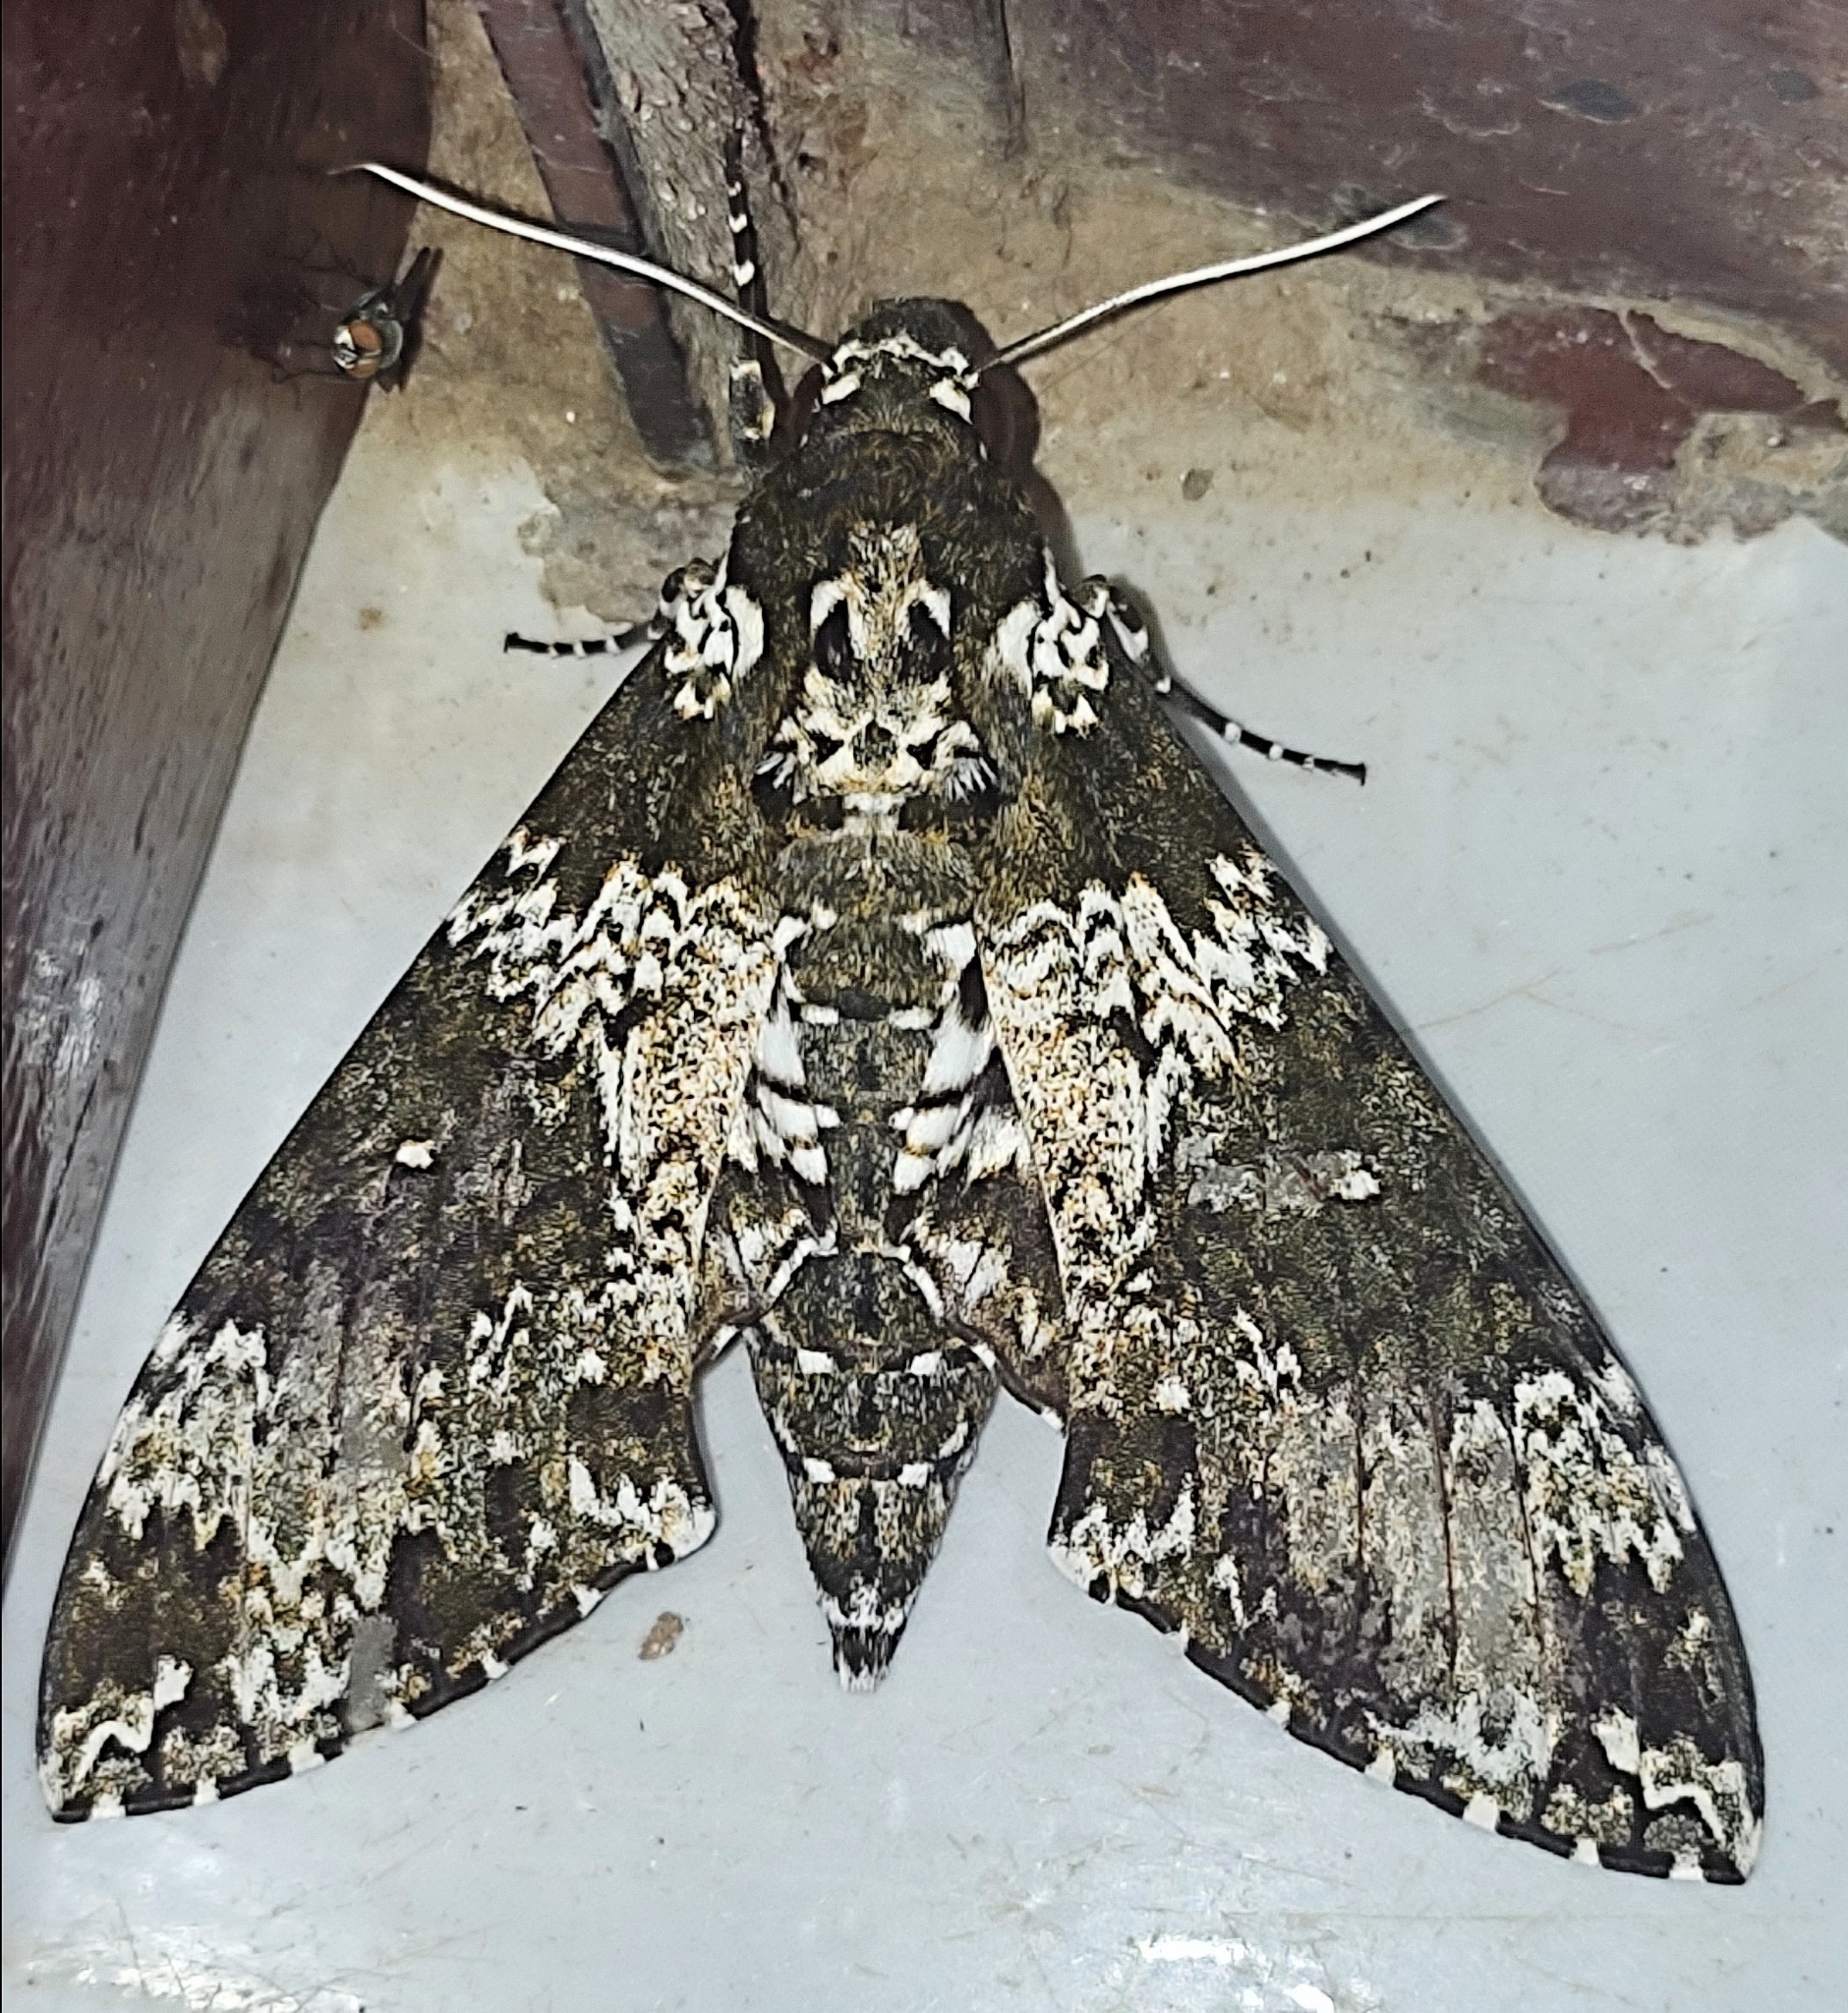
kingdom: Animalia
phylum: Arthropoda
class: Insecta
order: Lepidoptera
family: Sphingidae
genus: Manduca
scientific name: Manduca rustica
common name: Rustic sphinx
